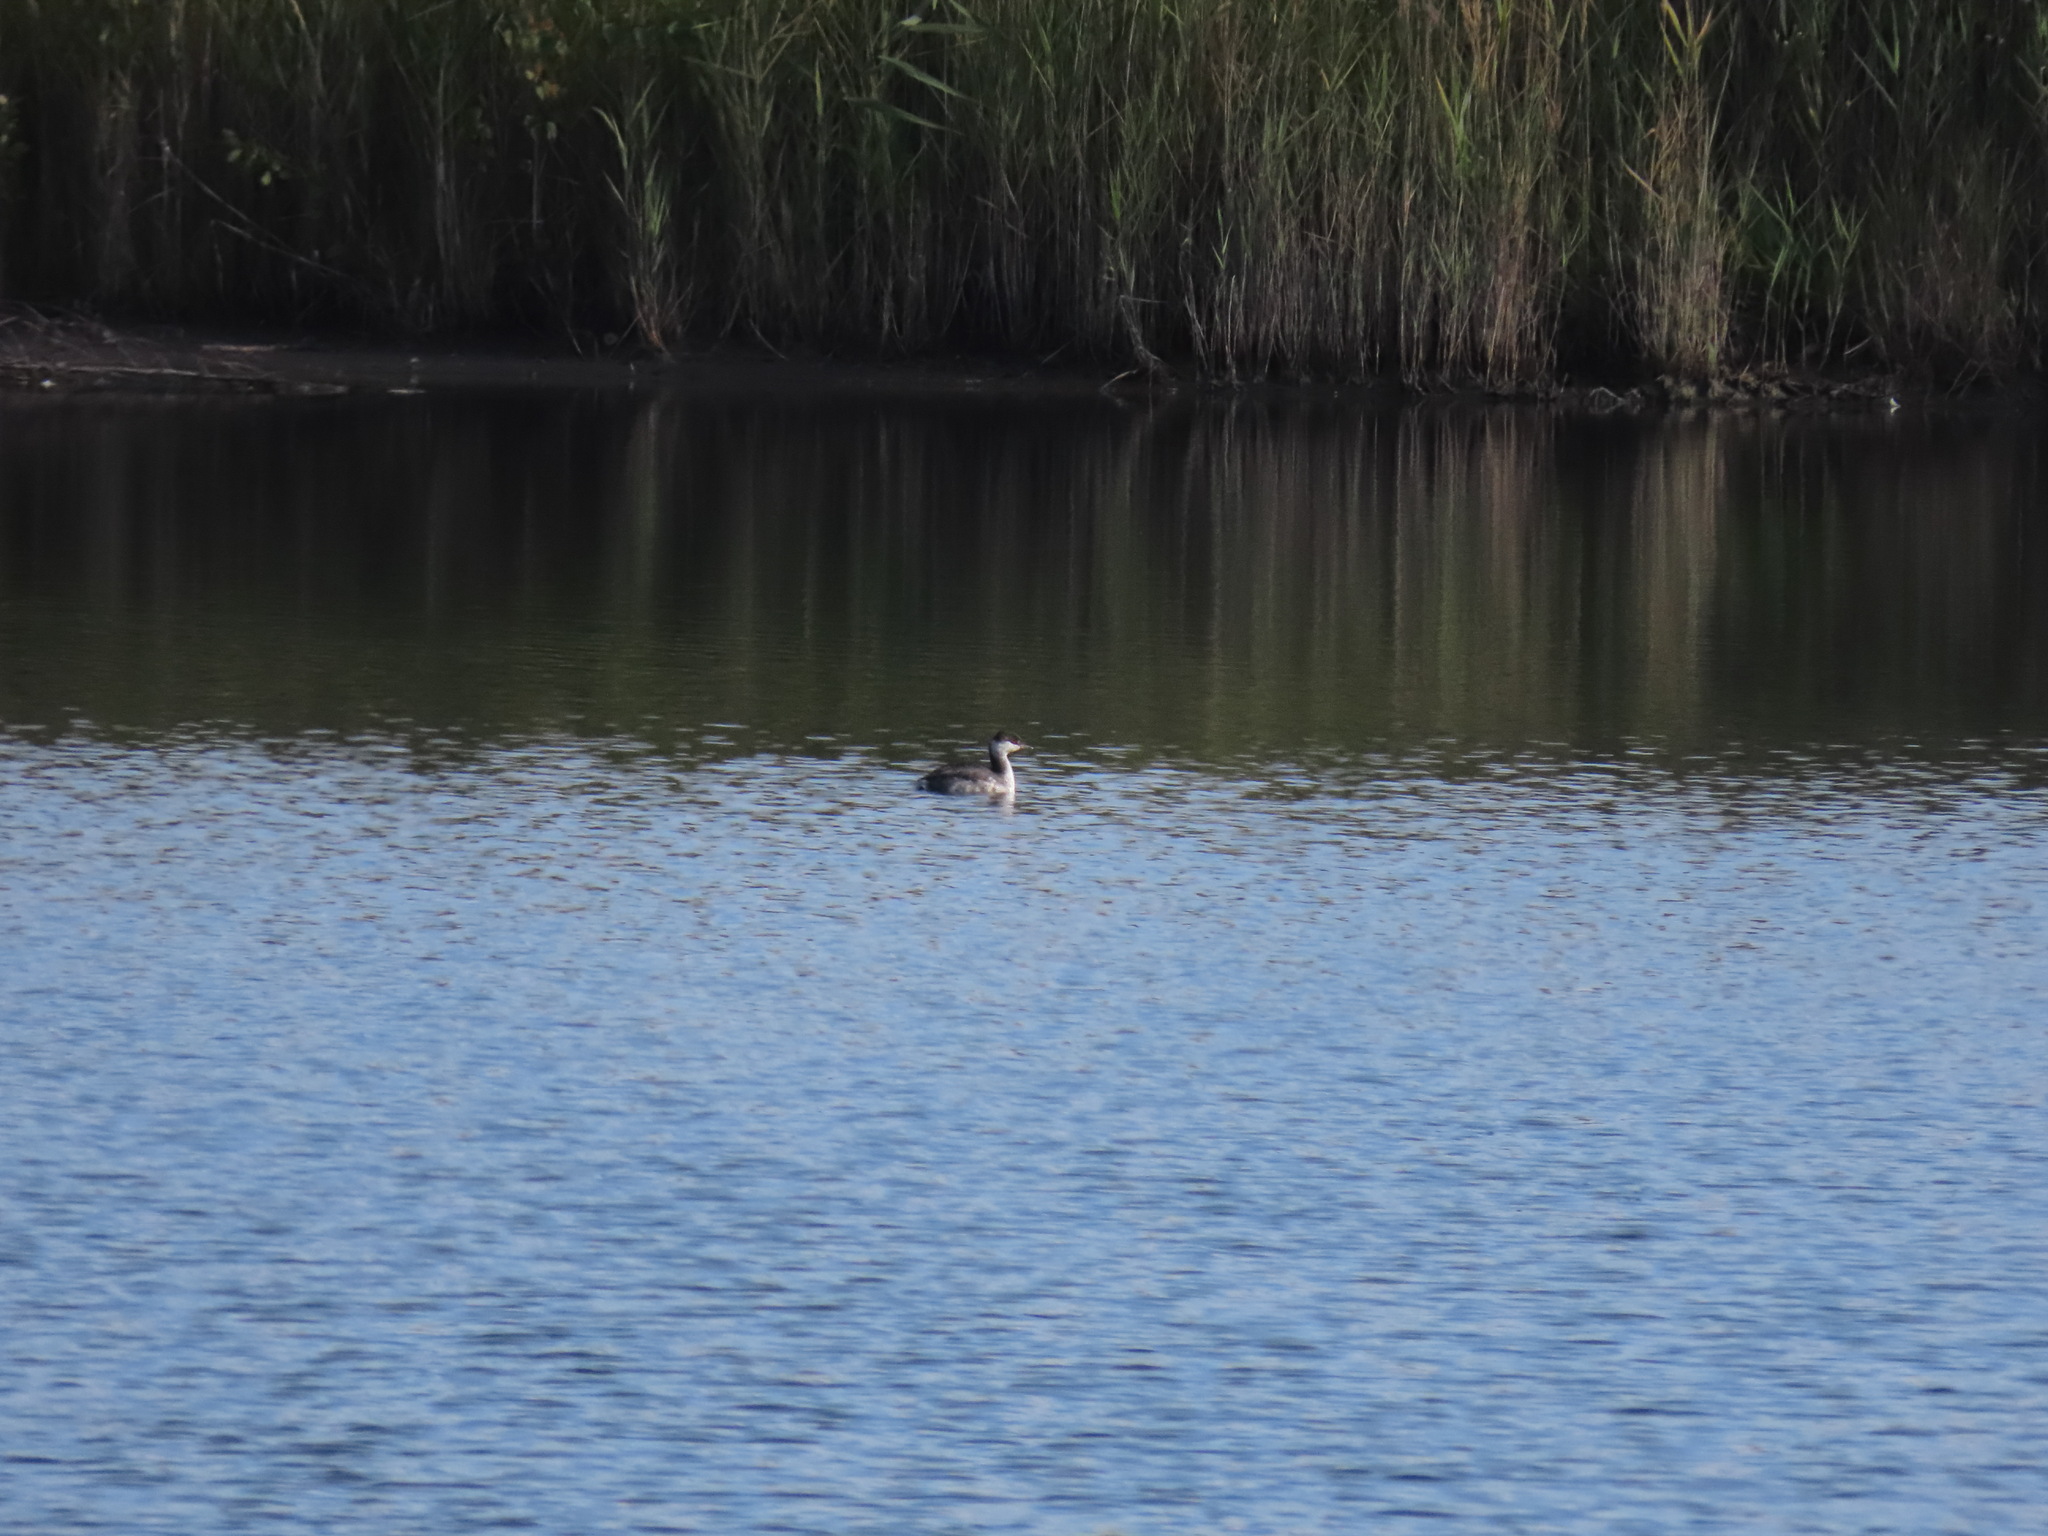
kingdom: Animalia
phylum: Chordata
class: Aves
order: Podicipediformes
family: Podicipedidae
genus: Podiceps
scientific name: Podiceps auritus
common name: Horned grebe
